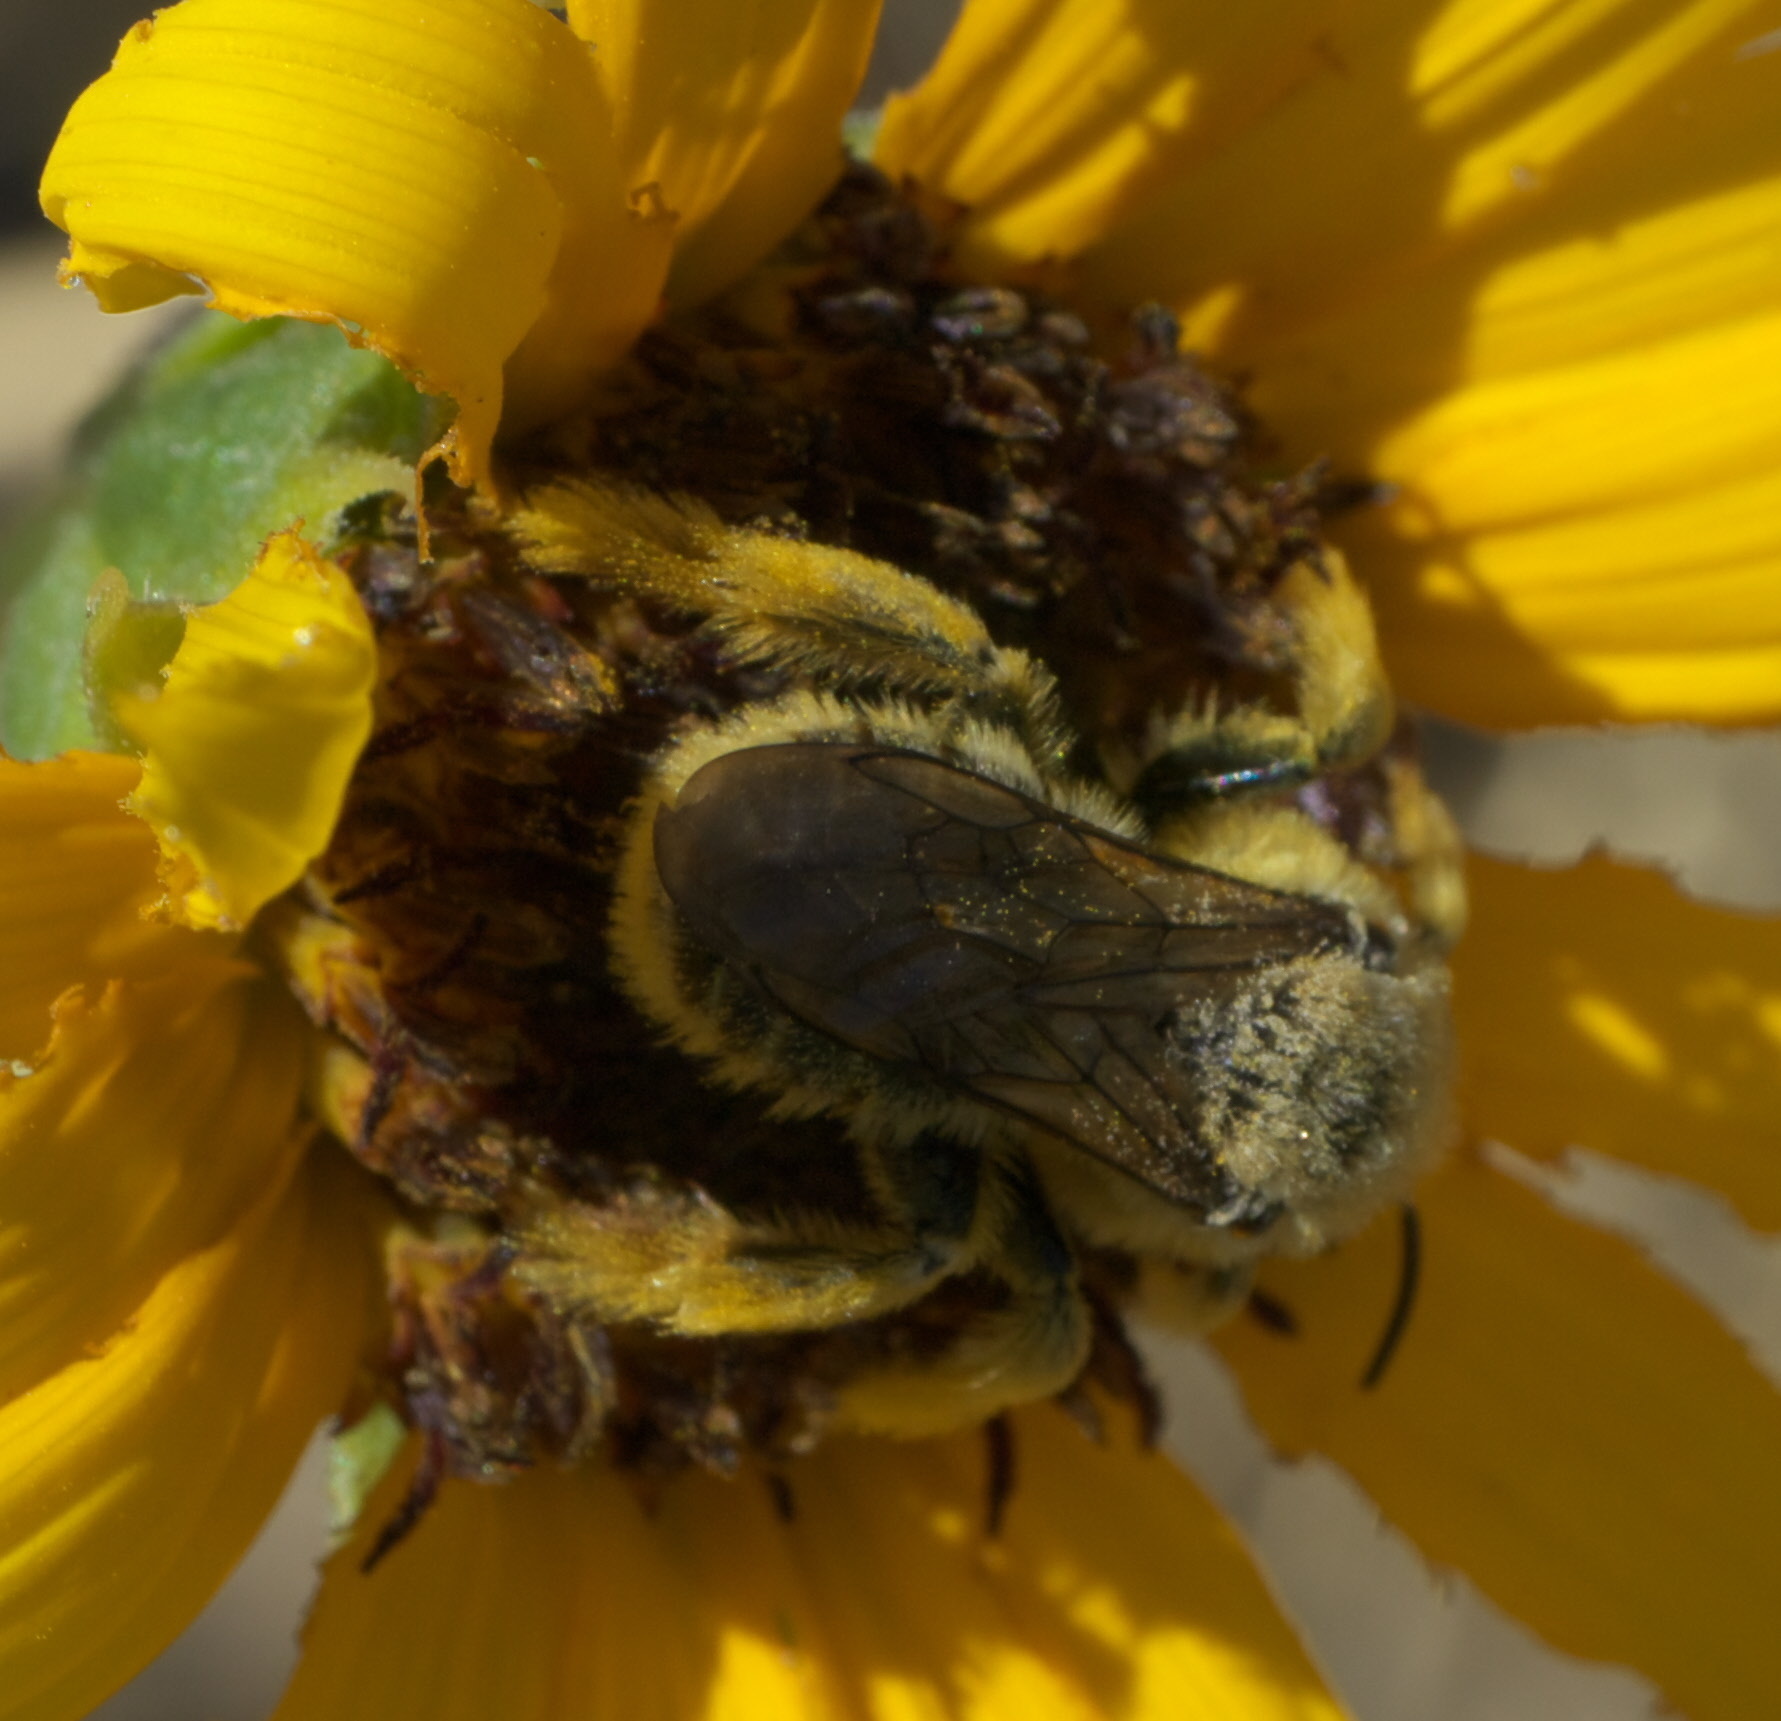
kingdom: Animalia
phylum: Arthropoda
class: Insecta
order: Hymenoptera
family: Apidae
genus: Diadasia
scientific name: Diadasia enavata
